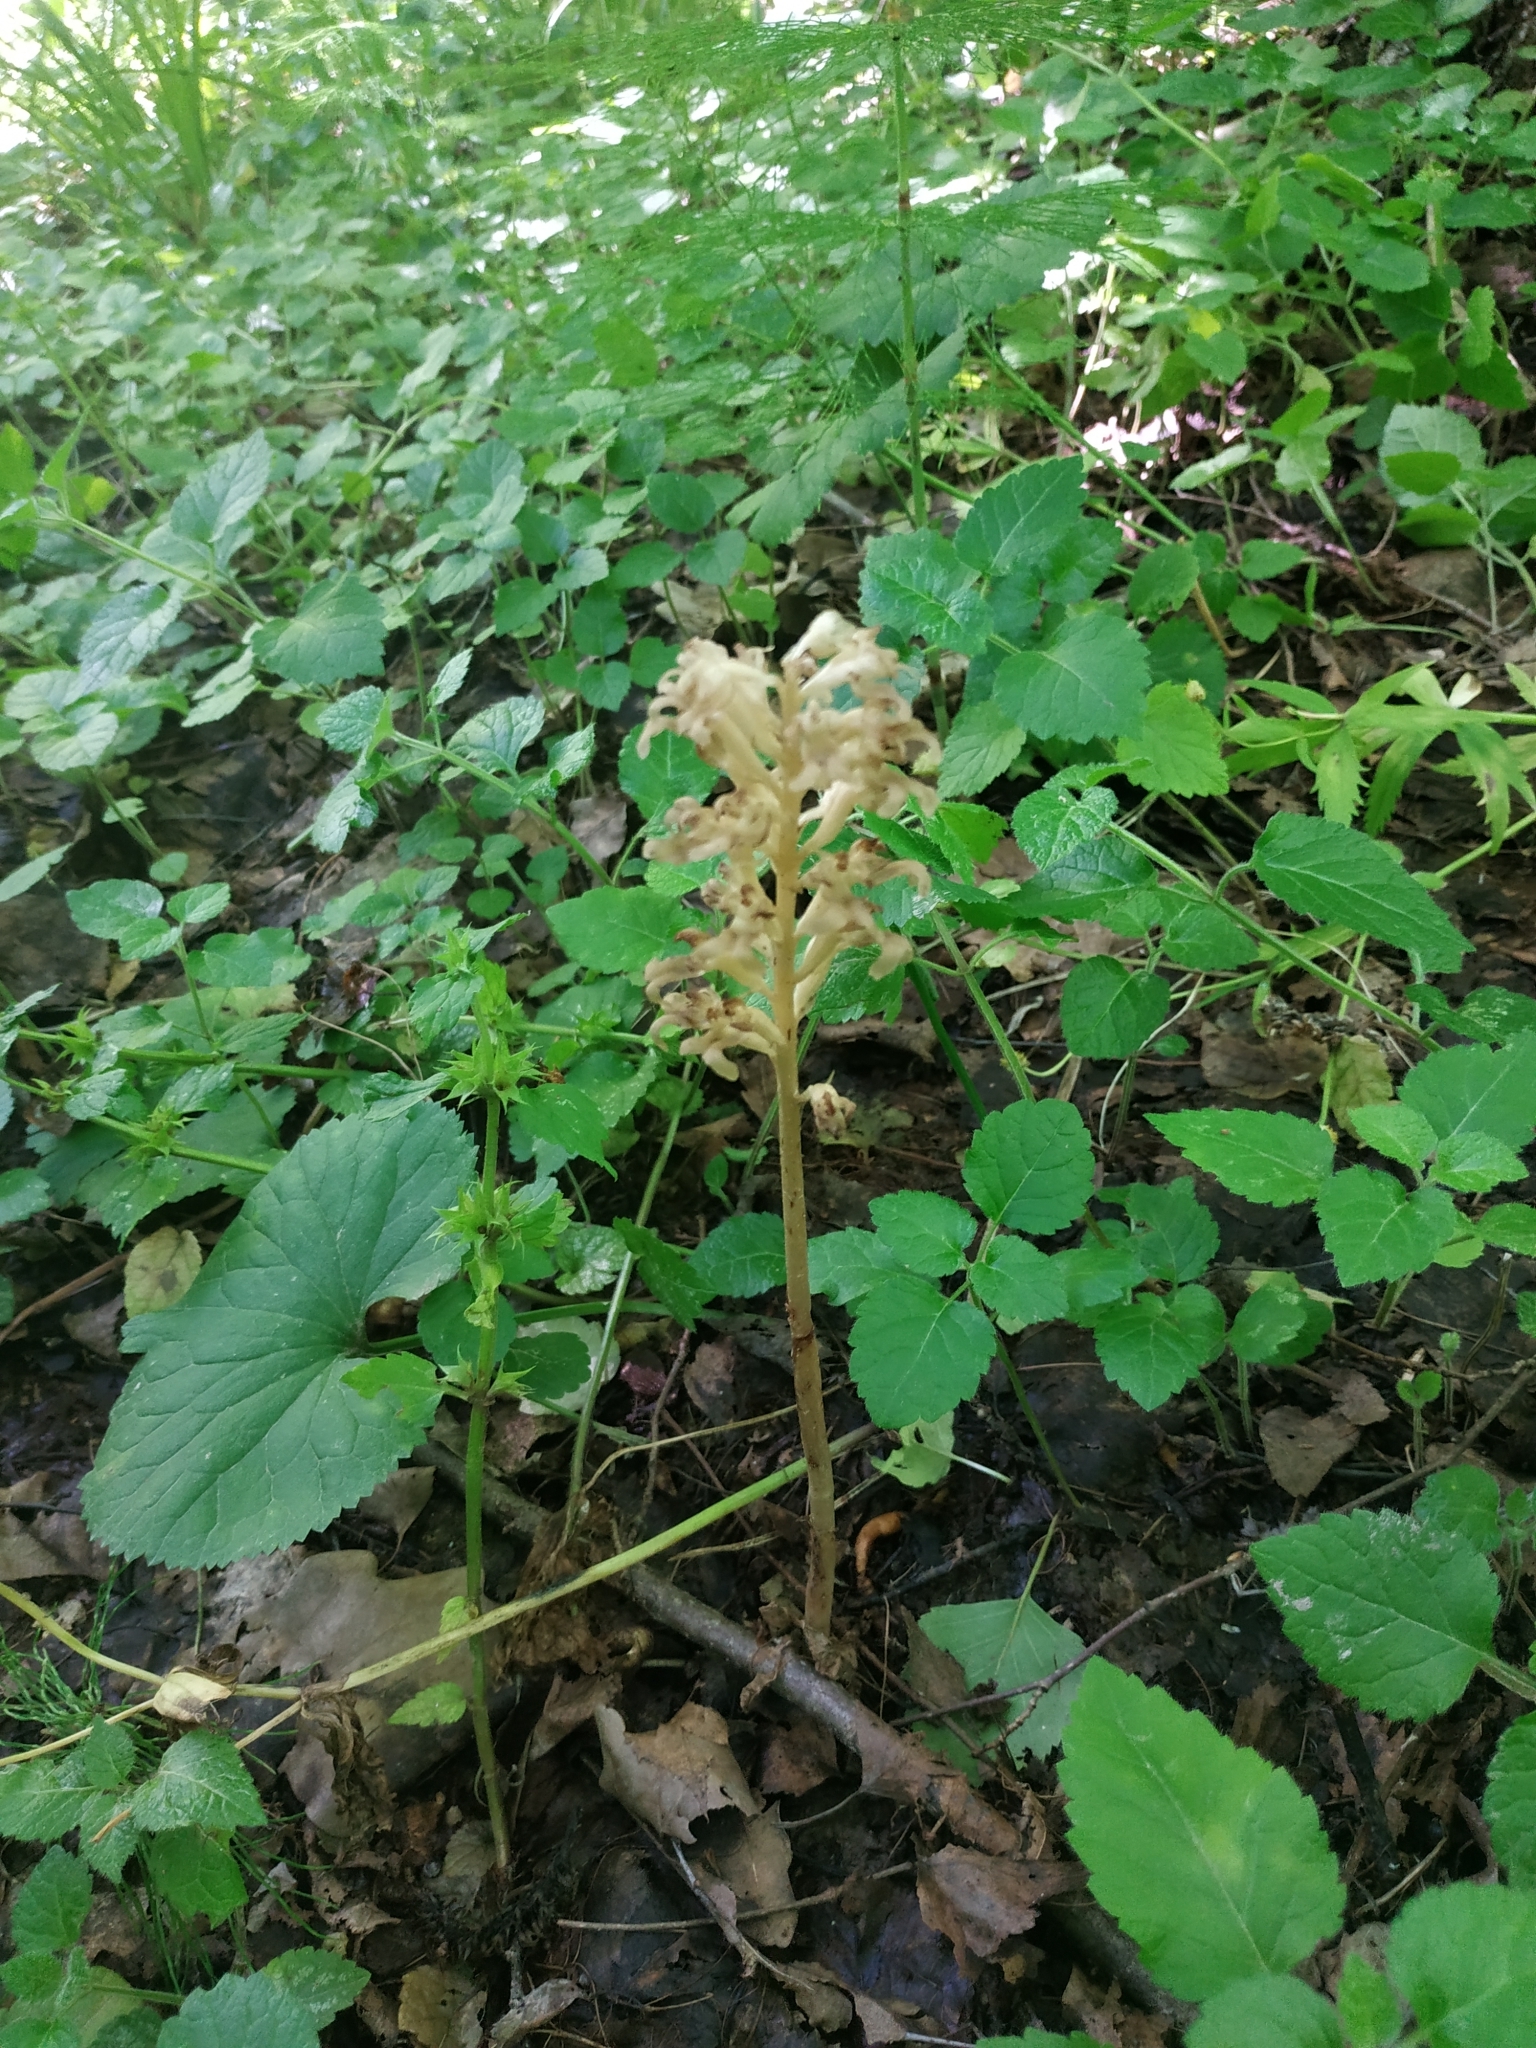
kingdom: Plantae
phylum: Tracheophyta
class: Liliopsida
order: Asparagales
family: Orchidaceae
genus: Neottia
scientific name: Neottia nidus-avis
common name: Bird's-nest orchid
